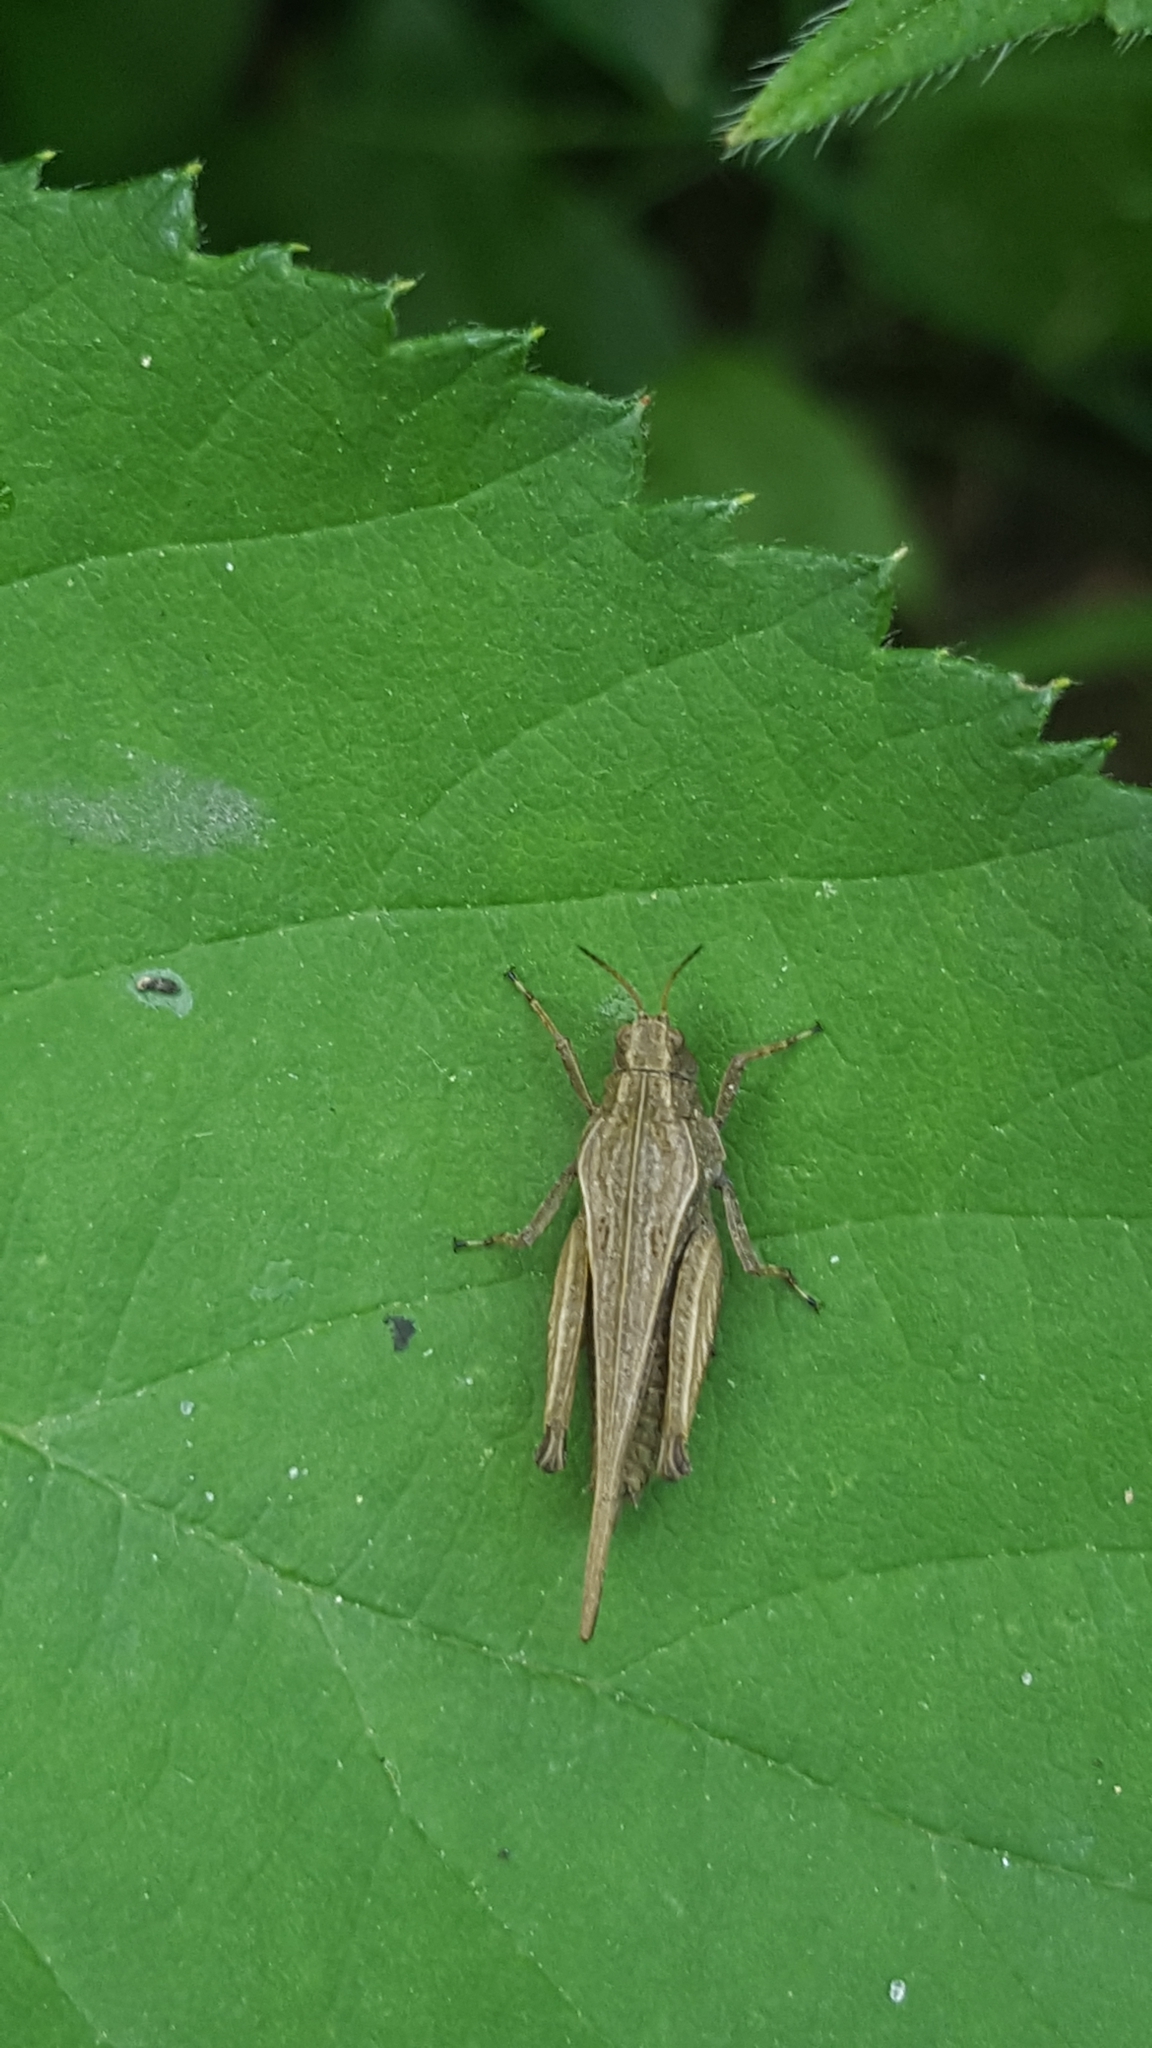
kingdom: Animalia
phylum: Arthropoda
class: Insecta
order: Orthoptera
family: Tetrigidae
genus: Tetrix
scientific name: Tetrix subulata
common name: Slender ground-hopper
